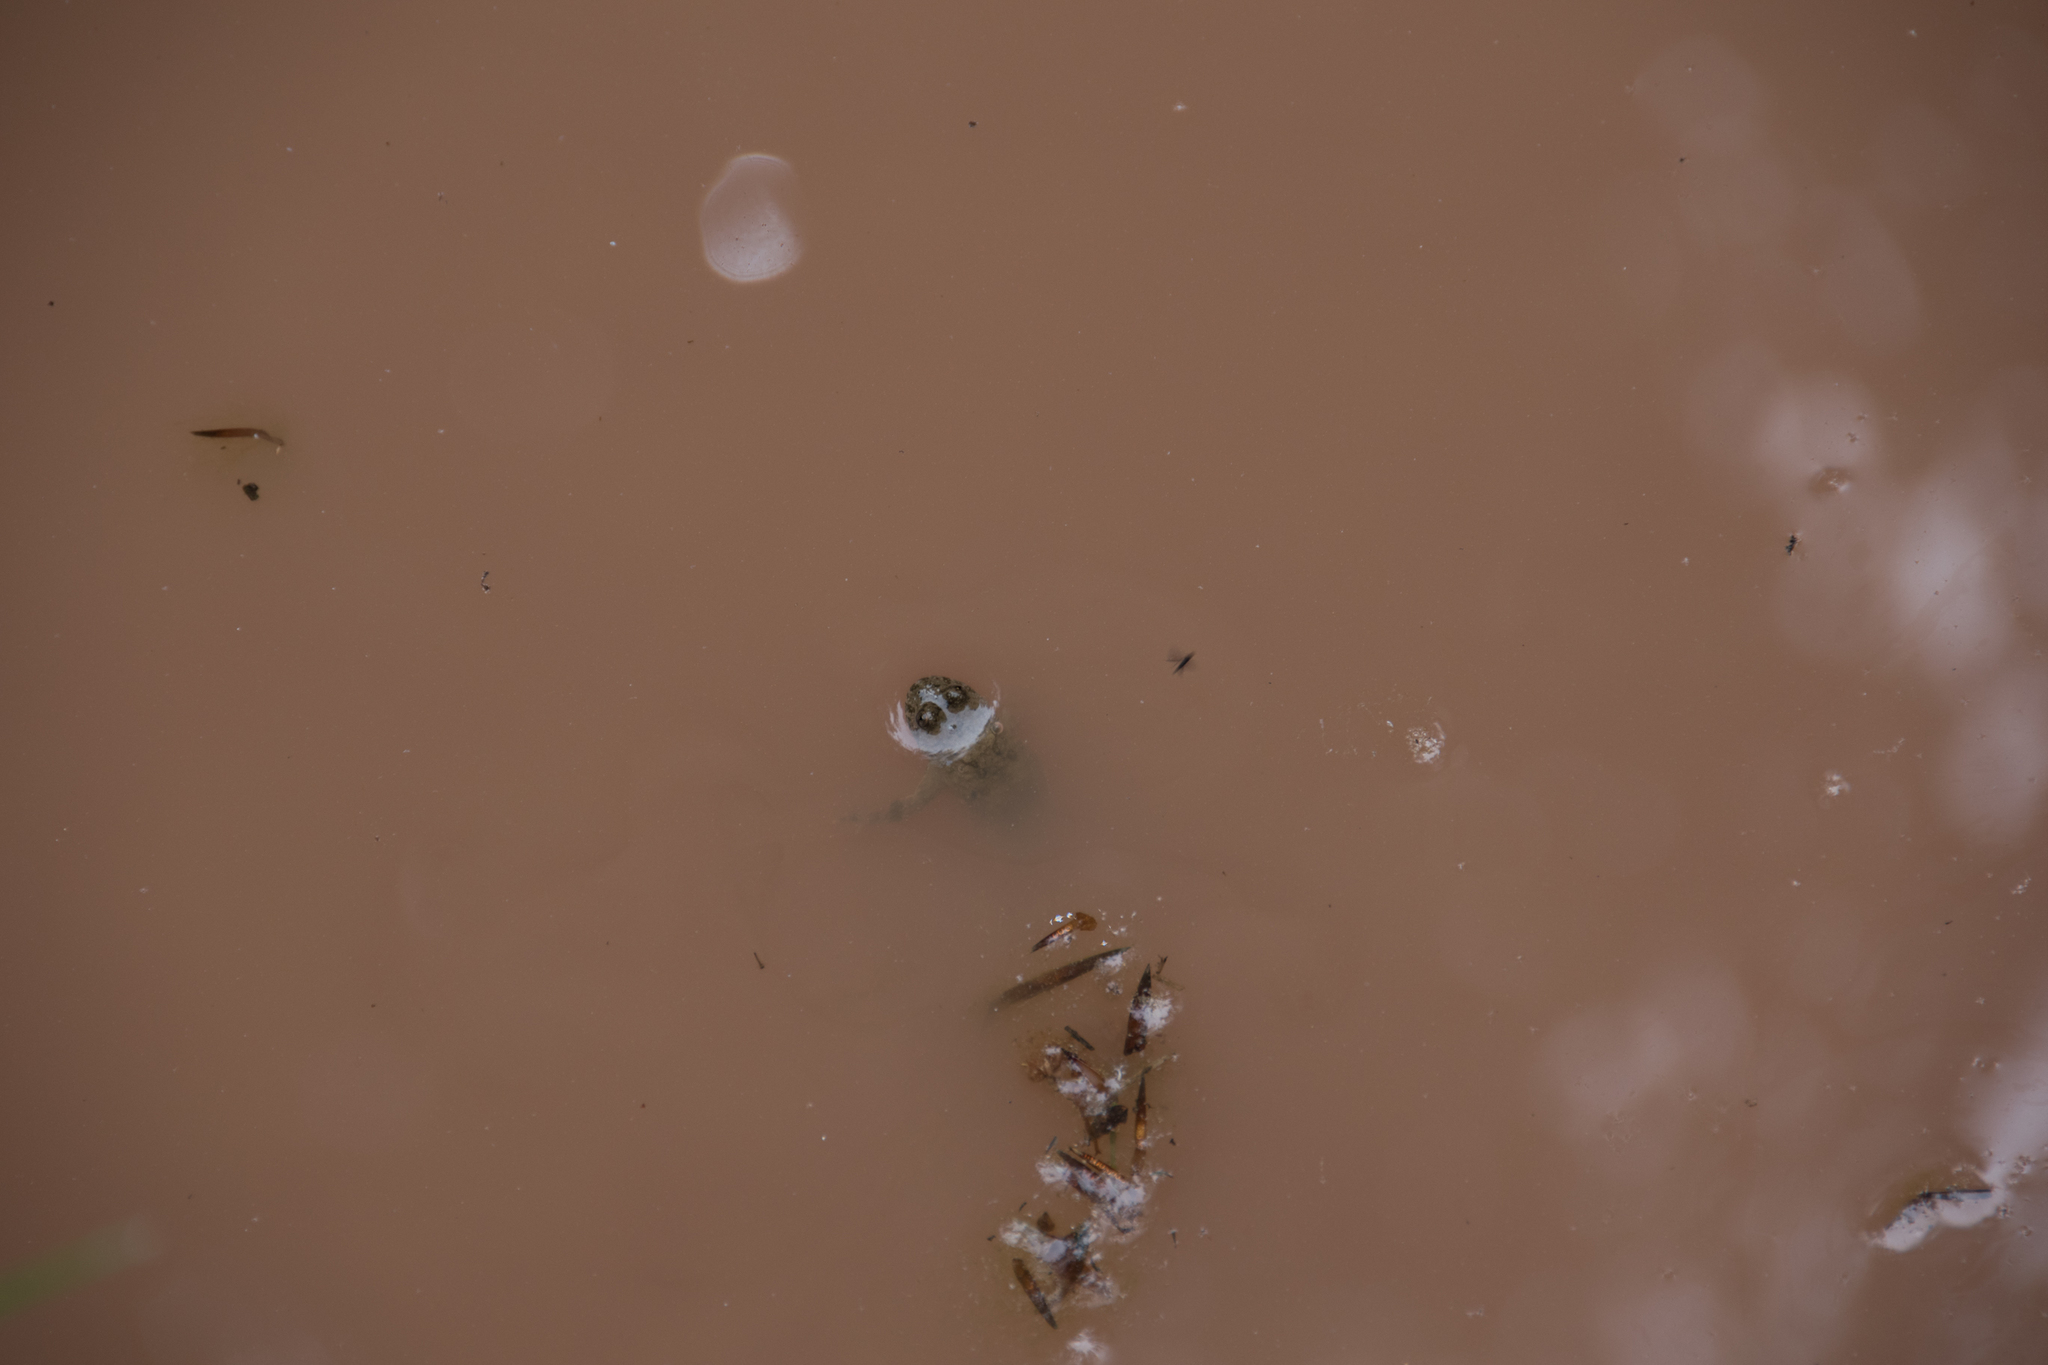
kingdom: Animalia
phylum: Chordata
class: Amphibia
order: Anura
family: Bombinatoridae
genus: Bombina
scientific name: Bombina variegata
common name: Yellow-bellied toad
